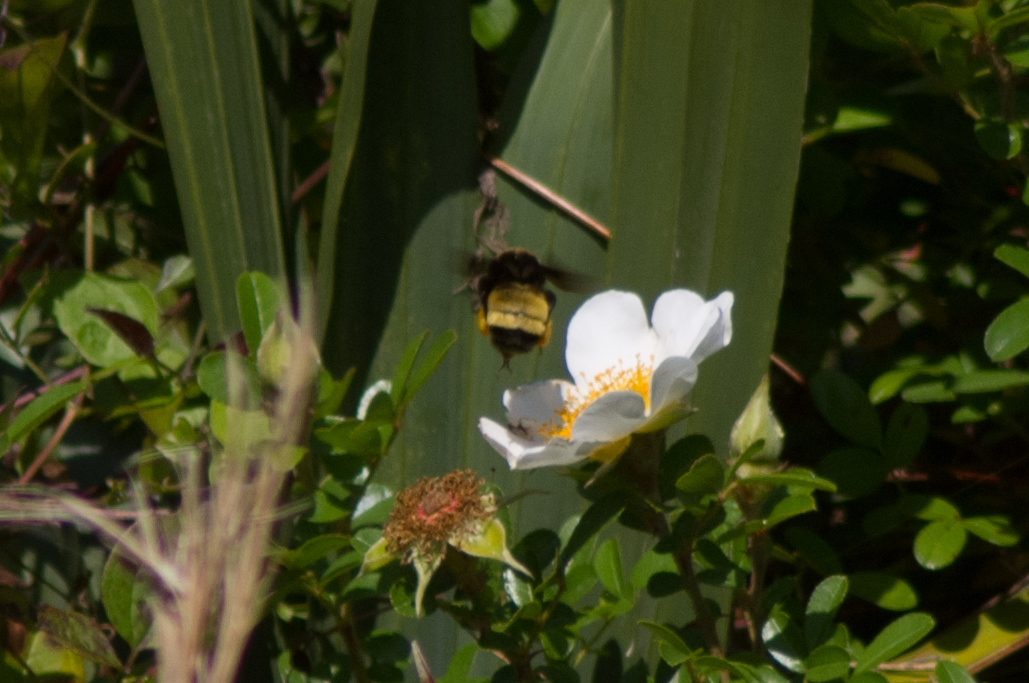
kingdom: Animalia
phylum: Arthropoda
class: Insecta
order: Hymenoptera
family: Apidae
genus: Bombus
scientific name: Bombus pensylvanicus
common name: Bumble bee
